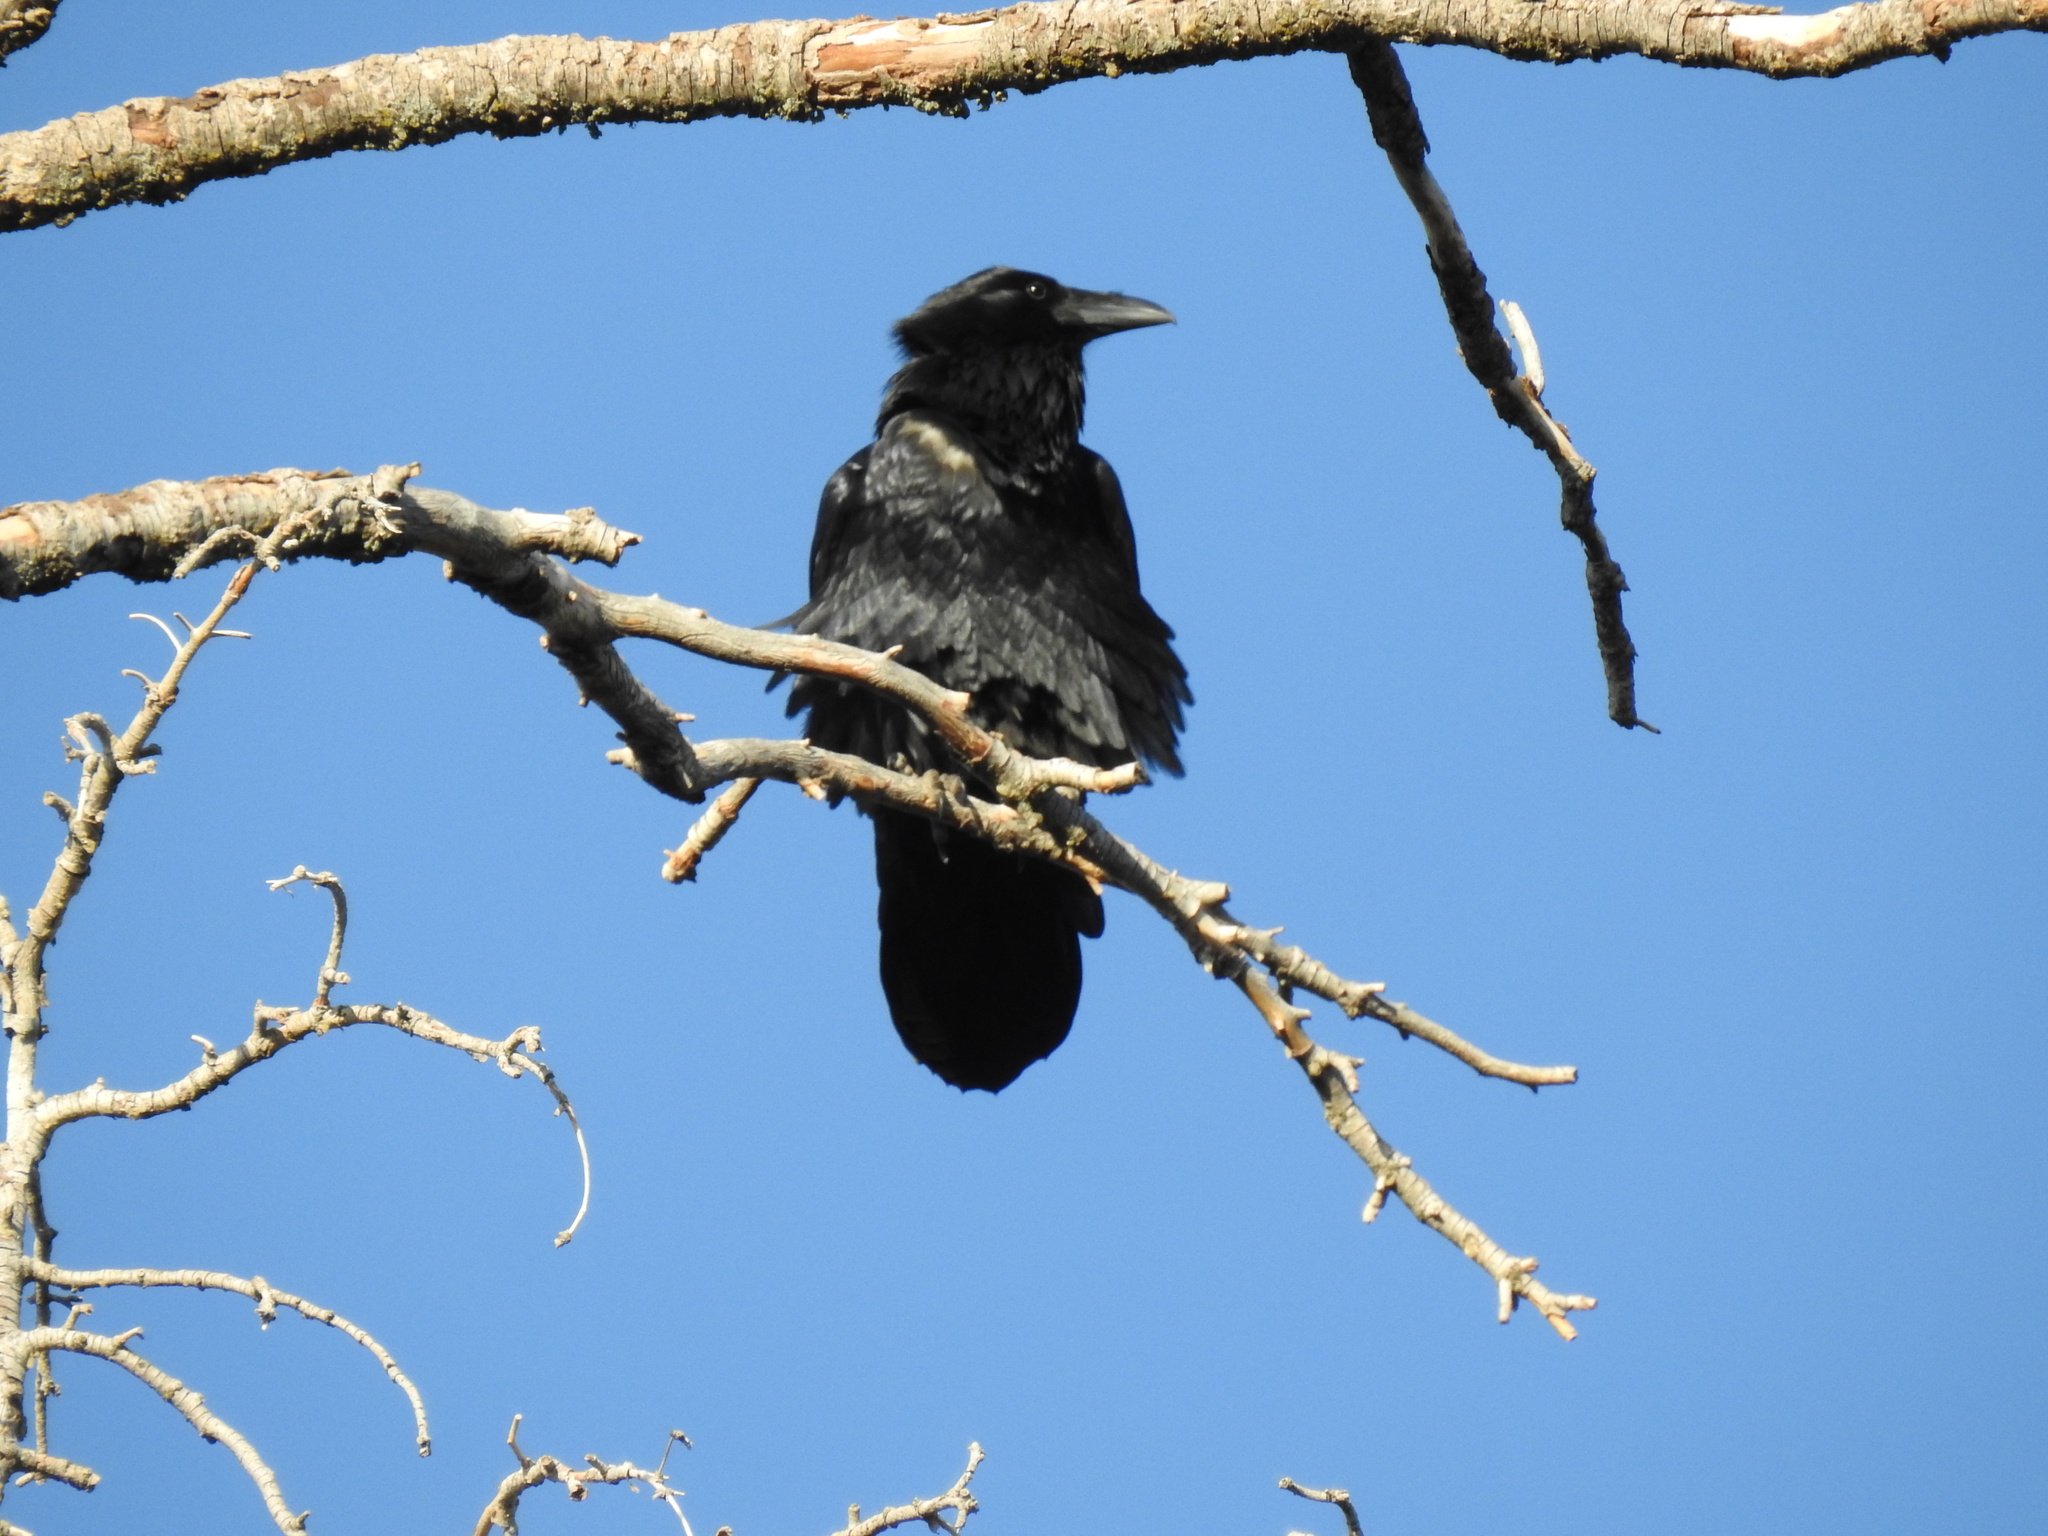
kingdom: Animalia
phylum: Chordata
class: Aves
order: Passeriformes
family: Corvidae
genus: Corvus
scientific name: Corvus corax
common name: Common raven
